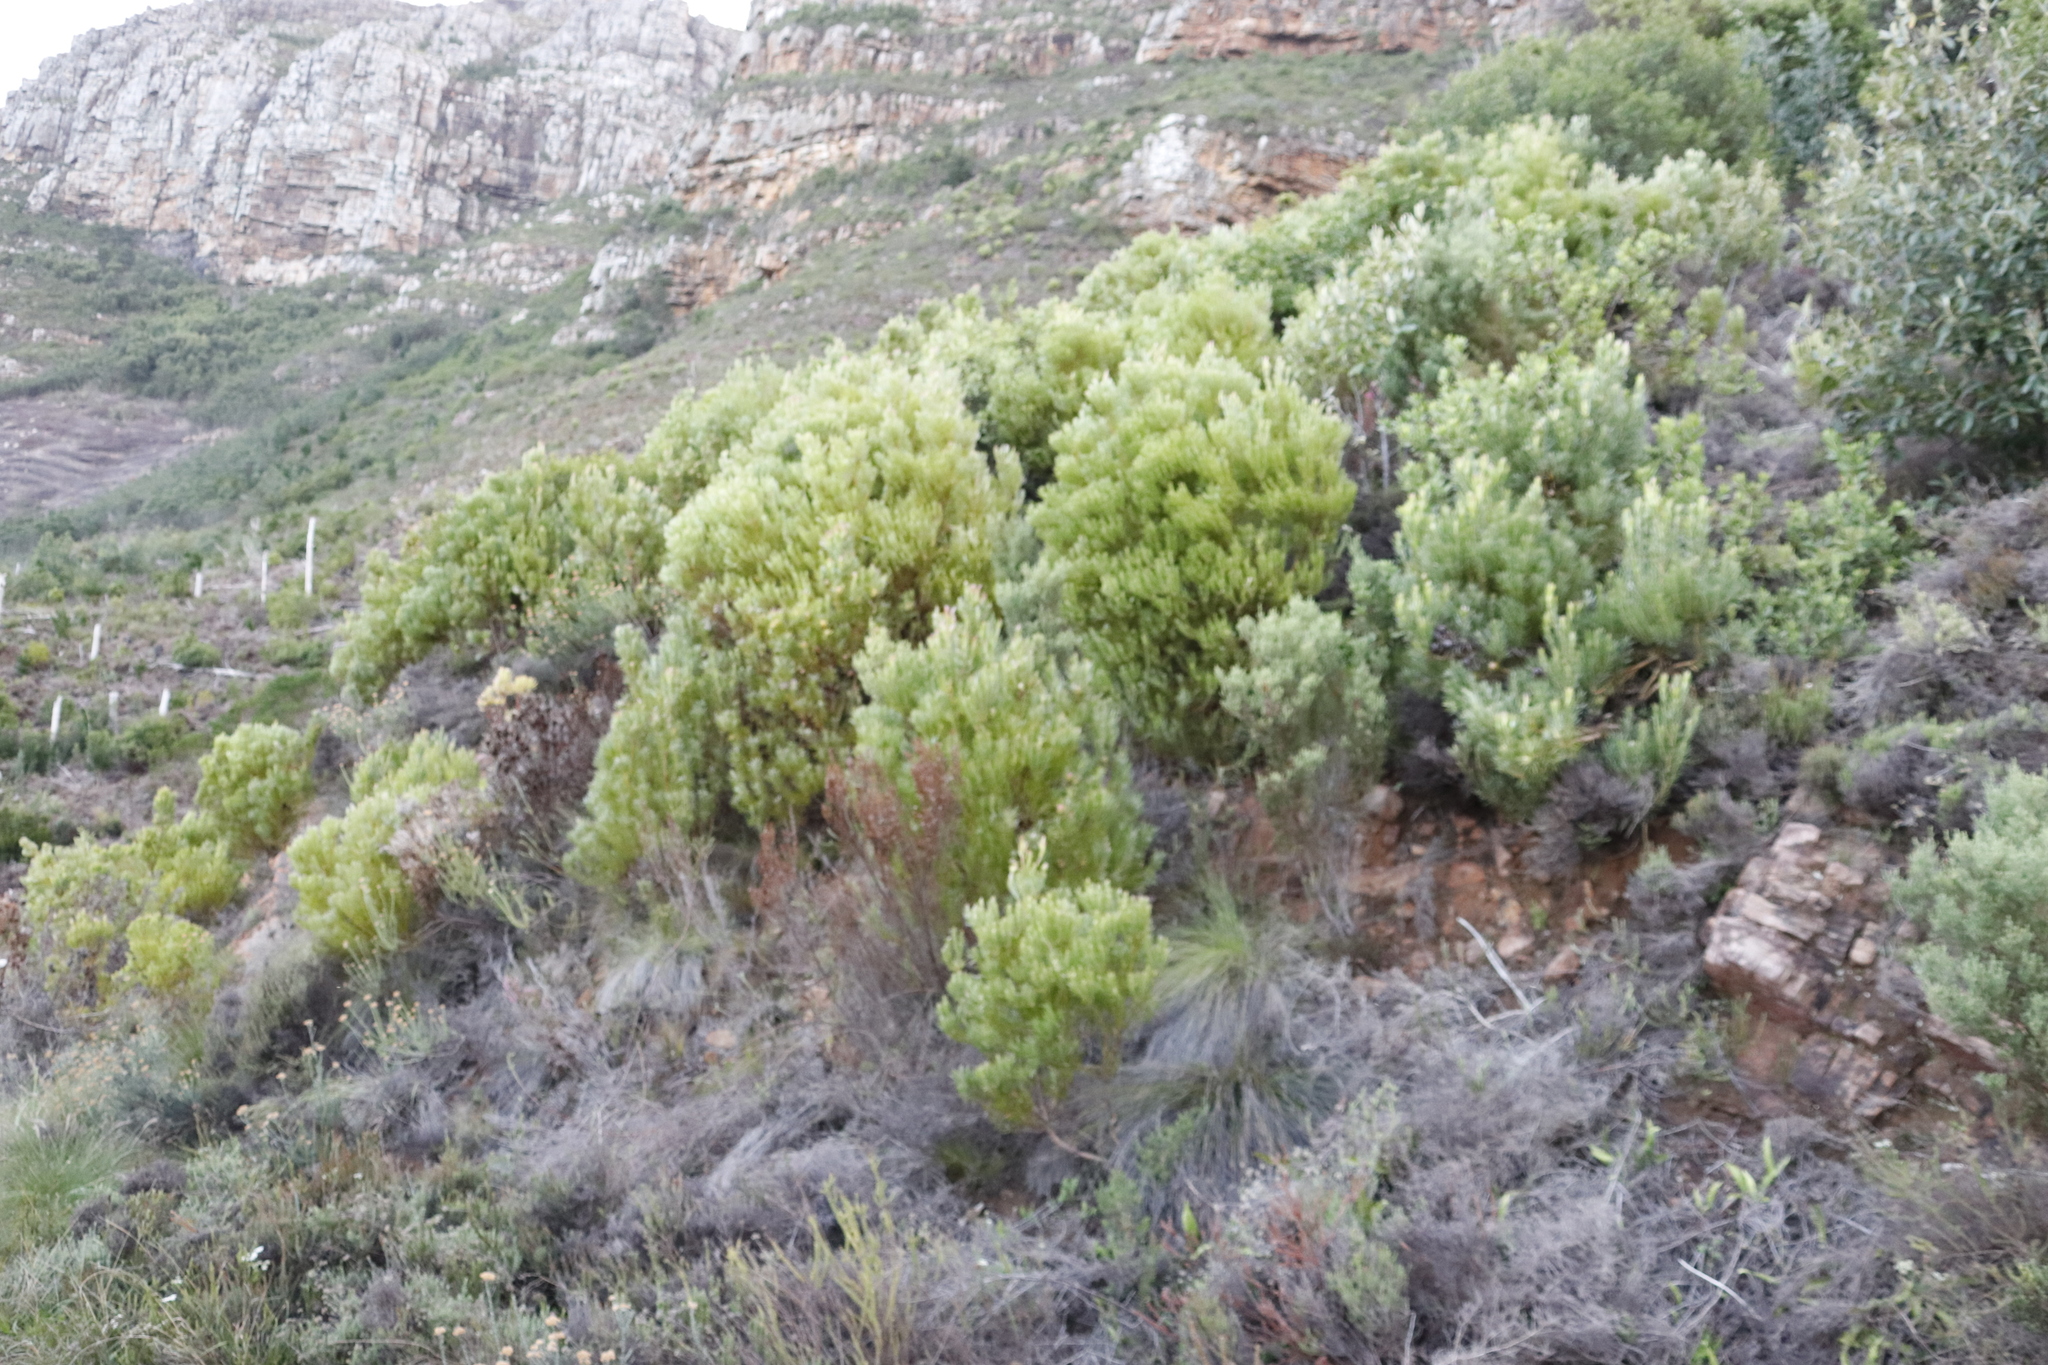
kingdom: Plantae
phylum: Tracheophyta
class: Magnoliopsida
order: Proteales
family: Proteaceae
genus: Leucadendron
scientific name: Leucadendron xanthoconus
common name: Sickle-leaf conebush
